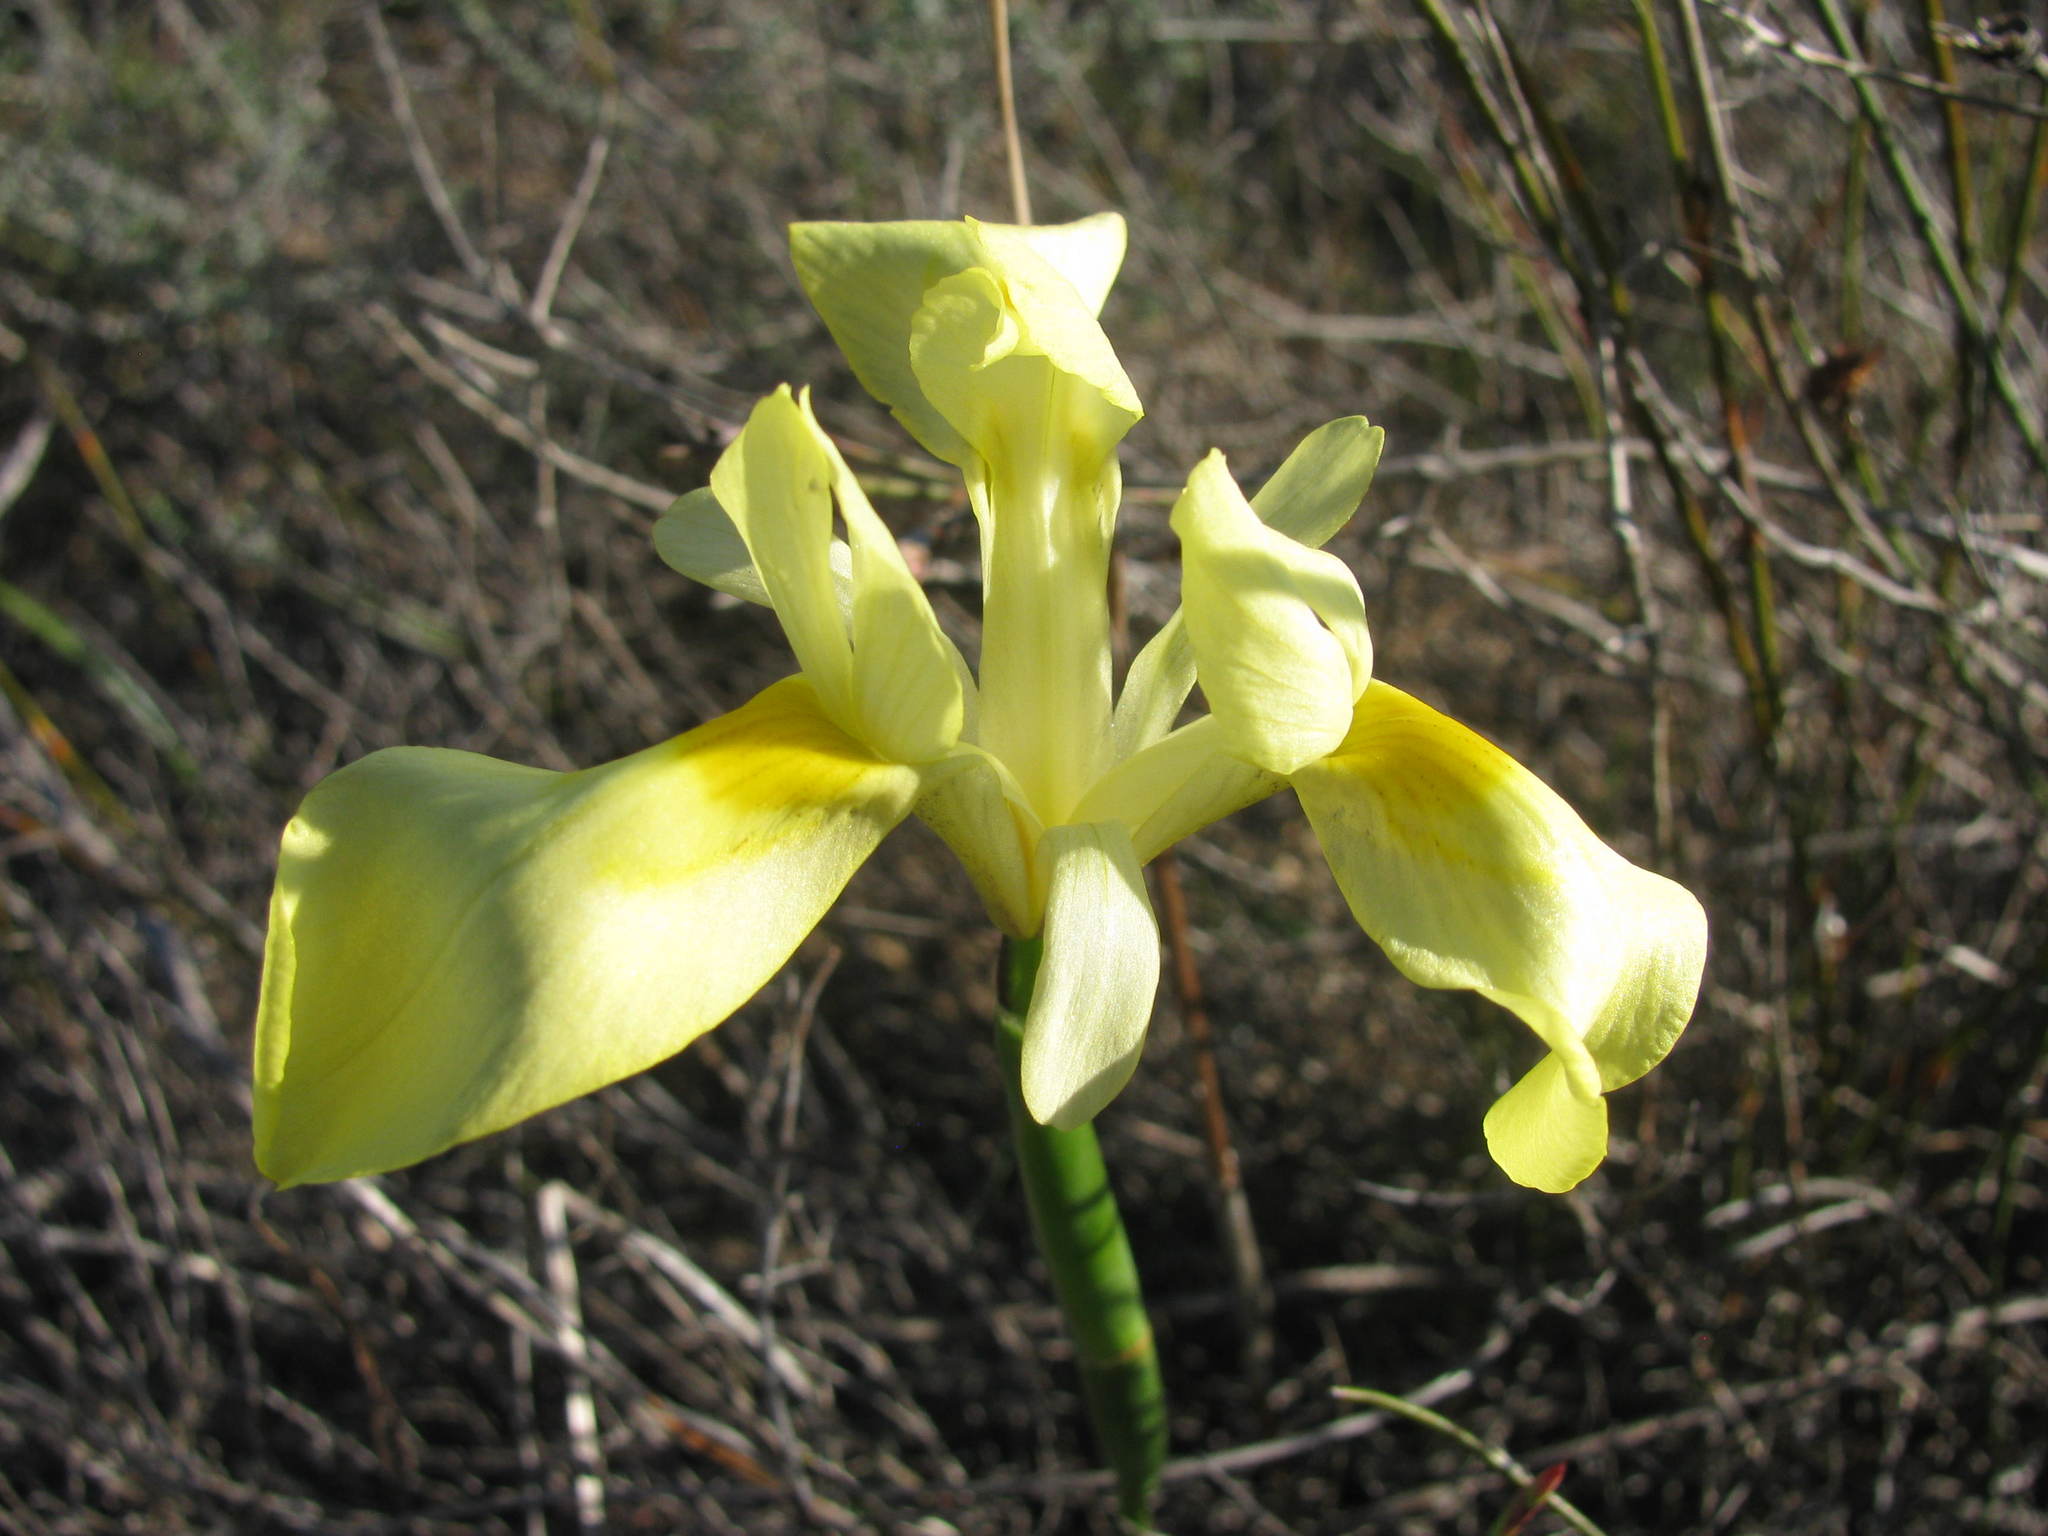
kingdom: Plantae
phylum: Tracheophyta
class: Liliopsida
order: Asparagales
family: Iridaceae
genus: Moraea
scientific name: Moraea neglecta
